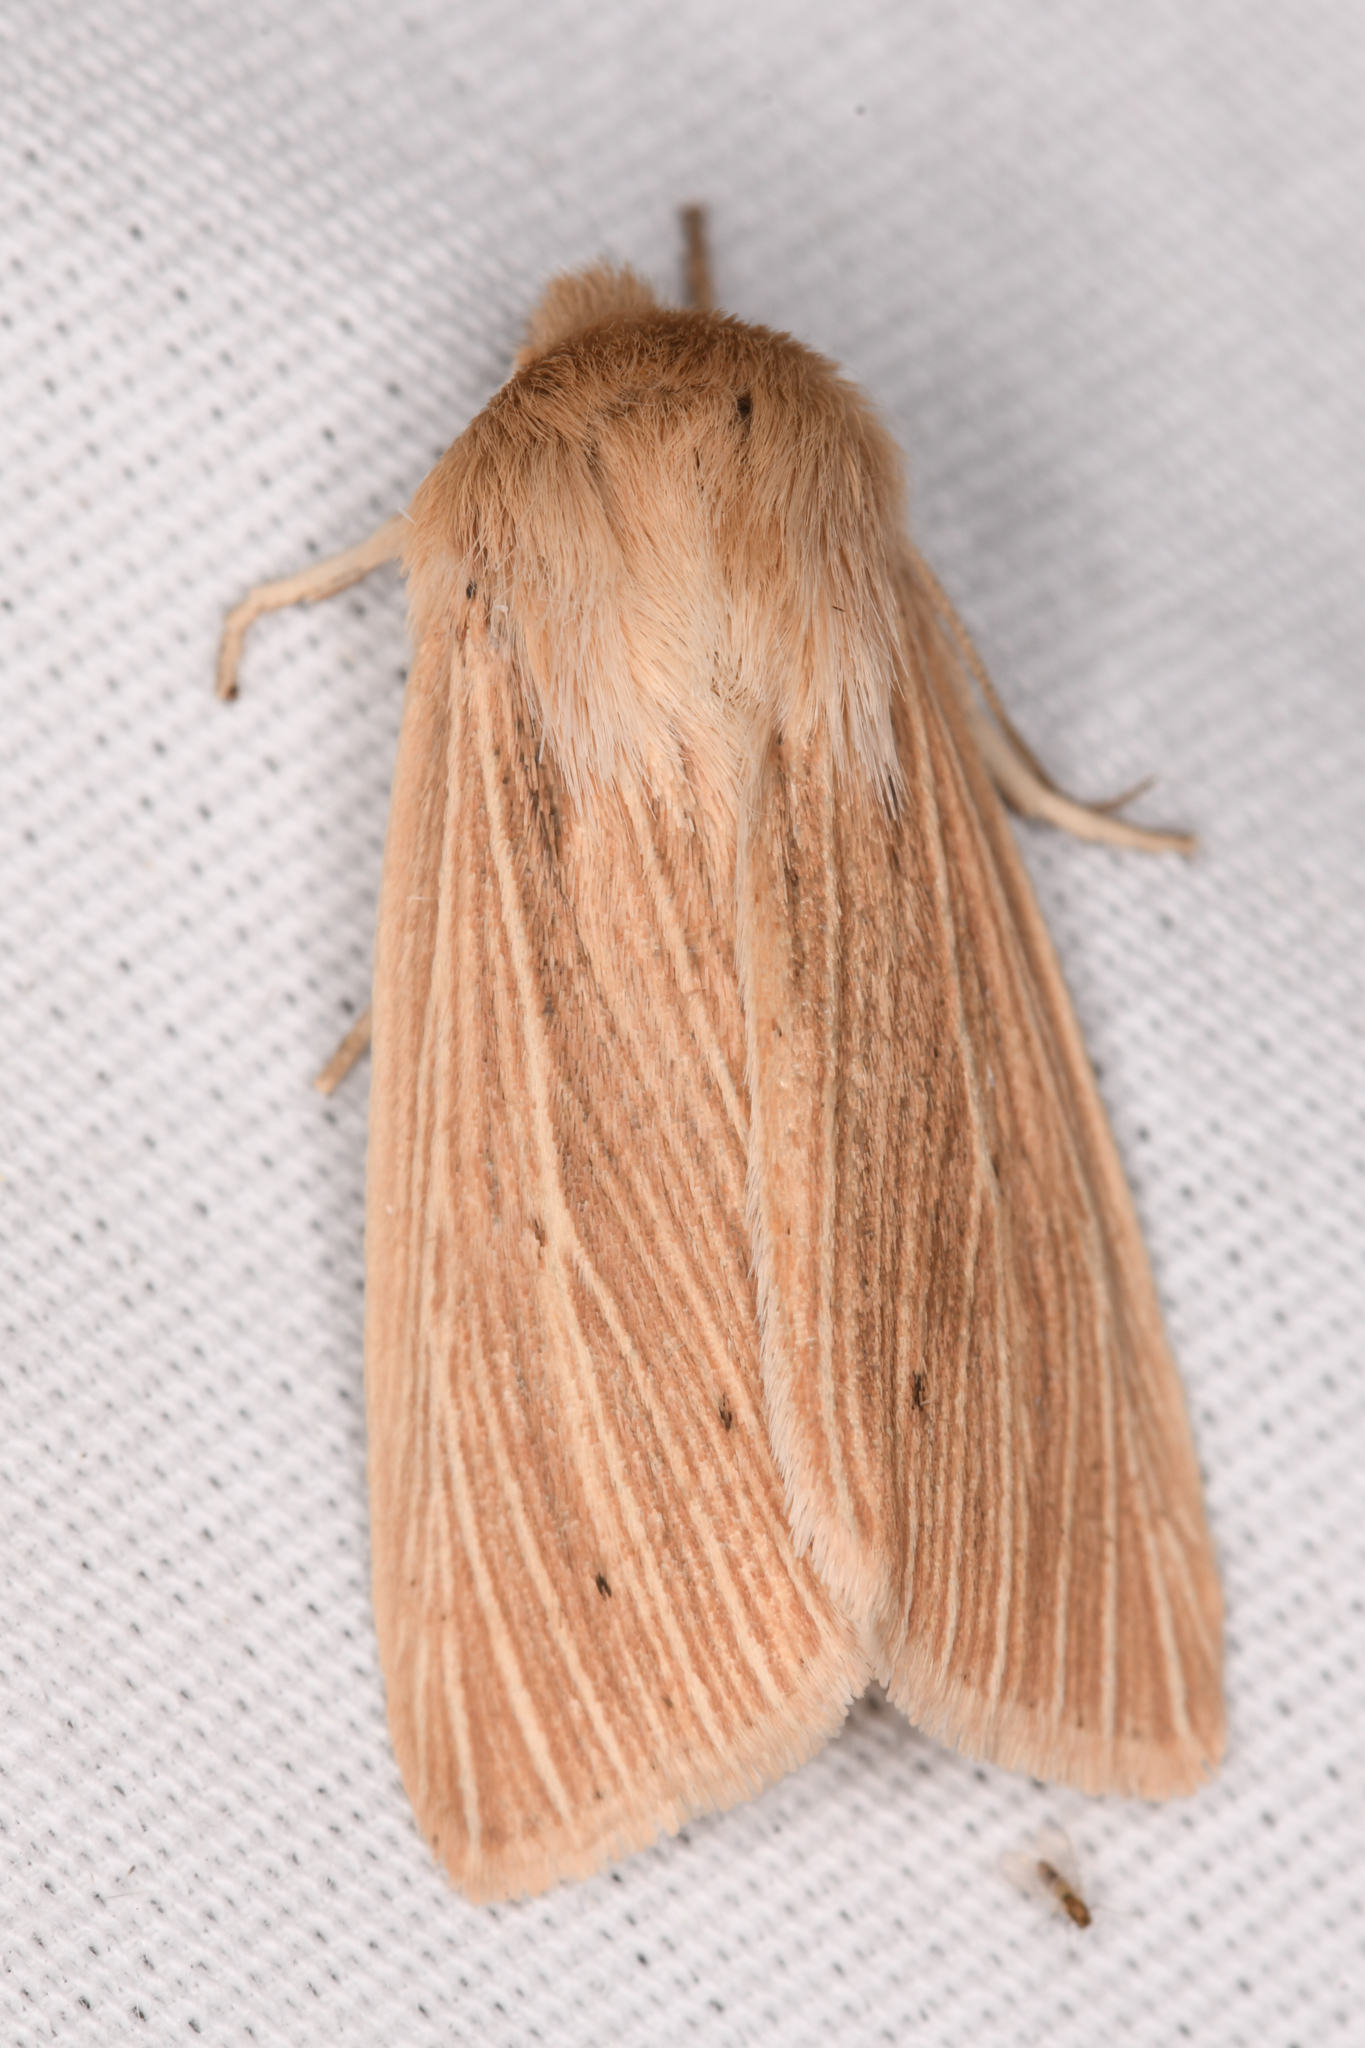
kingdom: Animalia
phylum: Arthropoda
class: Insecta
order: Lepidoptera
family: Noctuidae
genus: Mythimna
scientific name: Mythimna oxygala
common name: Lesser wainscot
